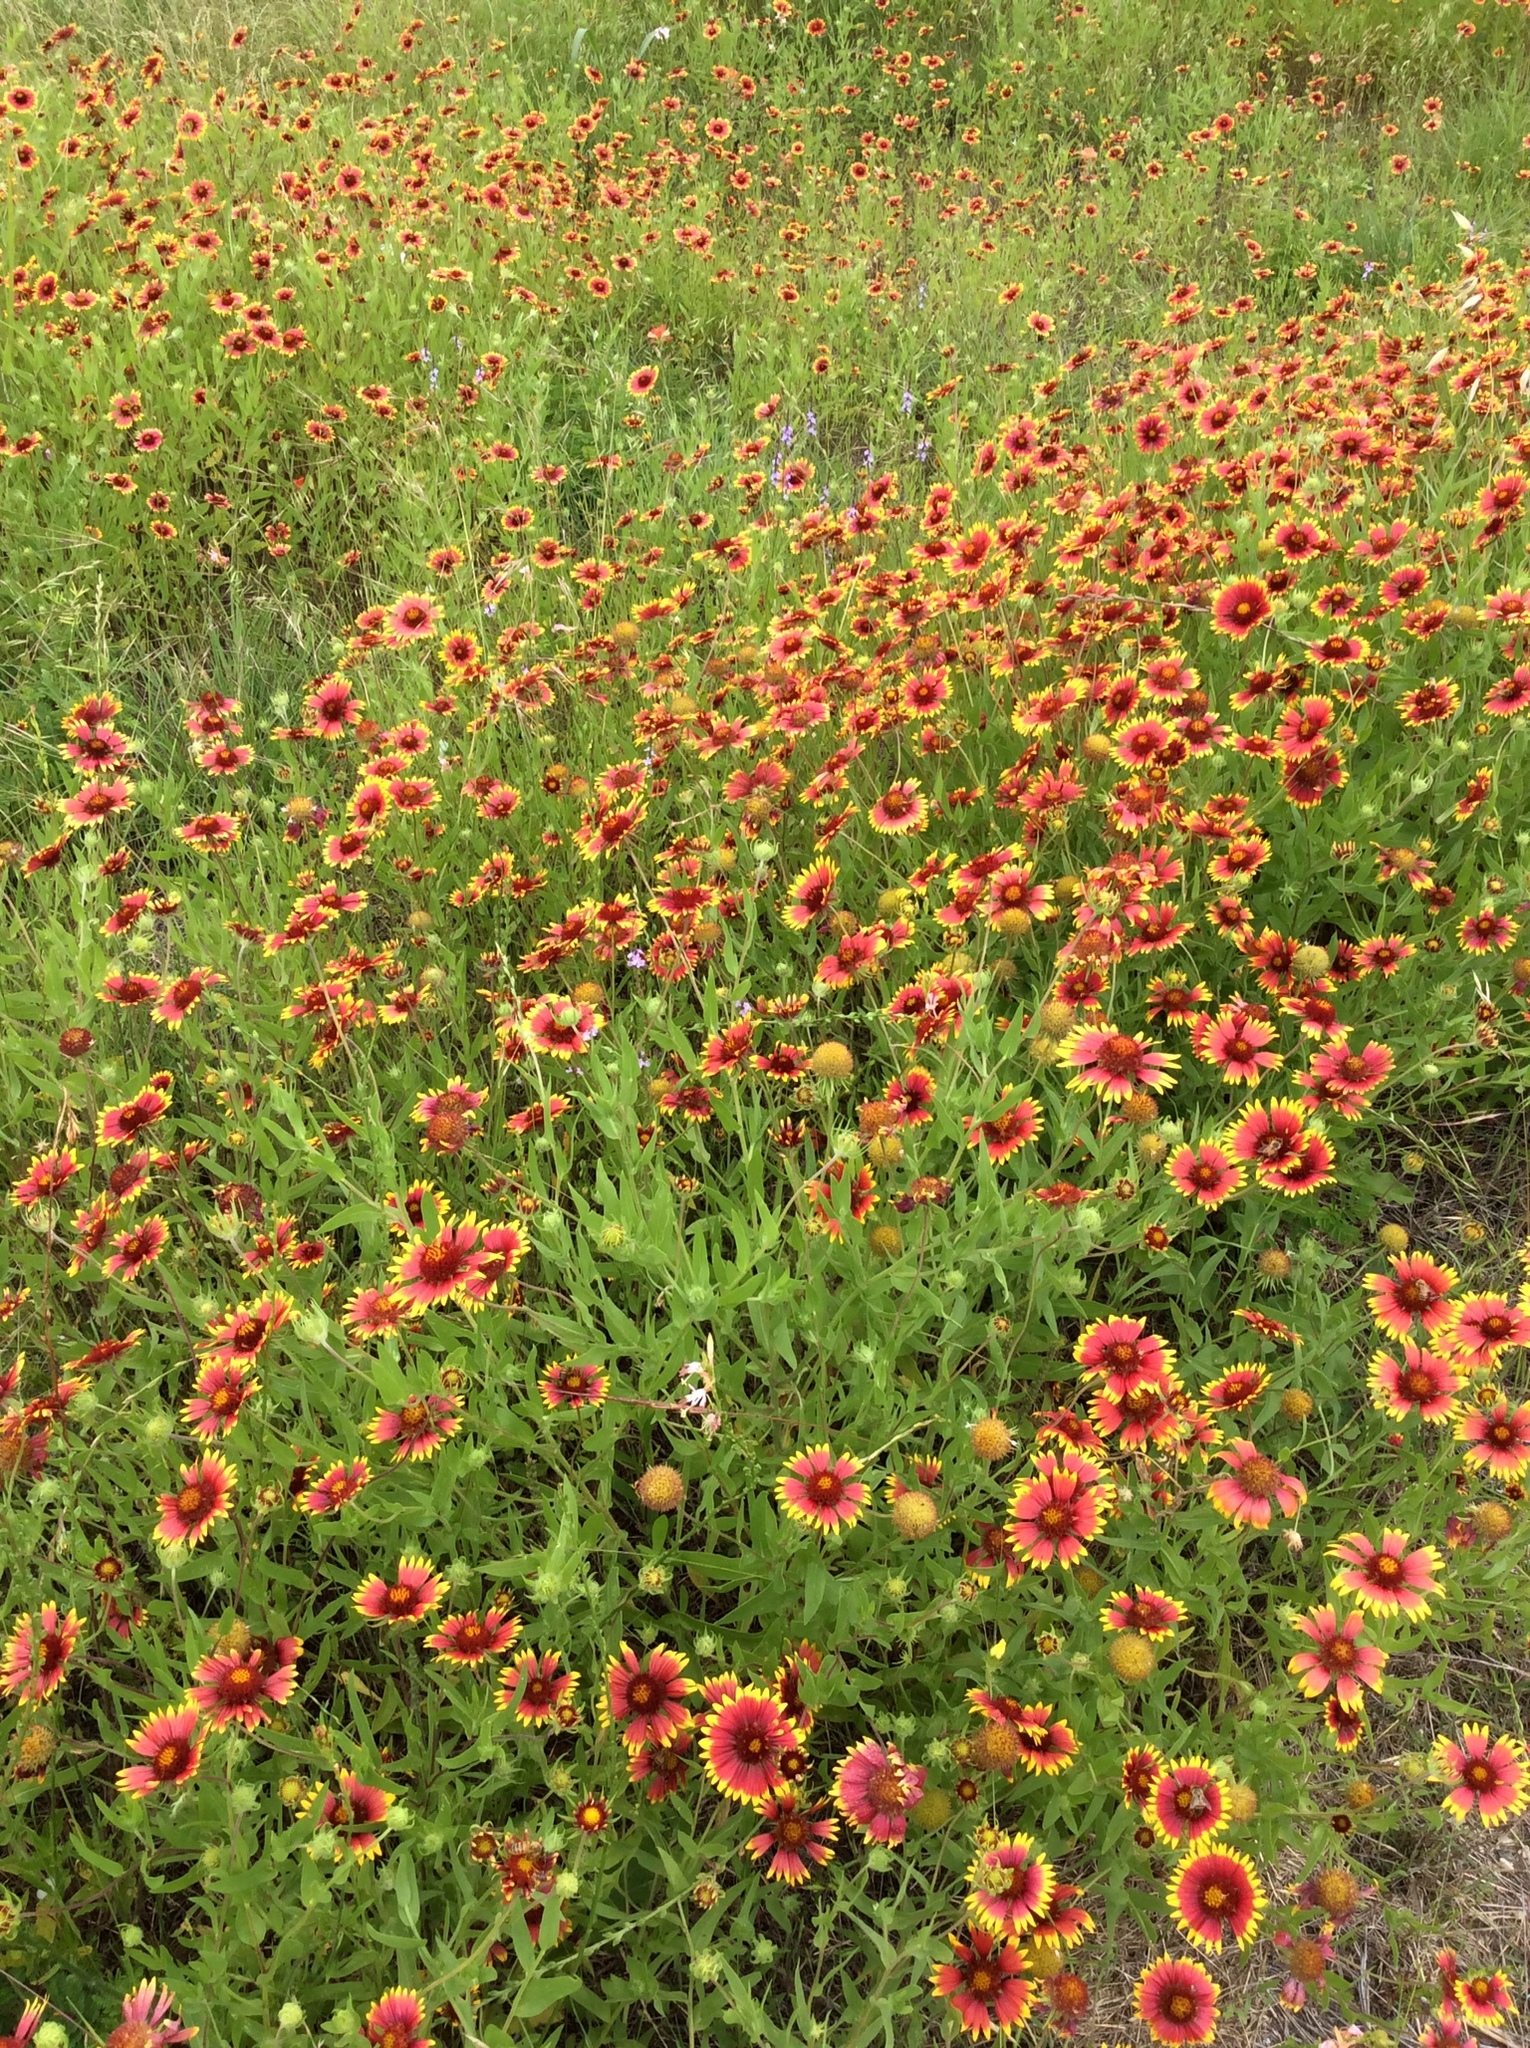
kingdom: Plantae
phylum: Tracheophyta
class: Magnoliopsida
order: Asterales
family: Asteraceae
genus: Gaillardia
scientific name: Gaillardia pulchella
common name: Firewheel
